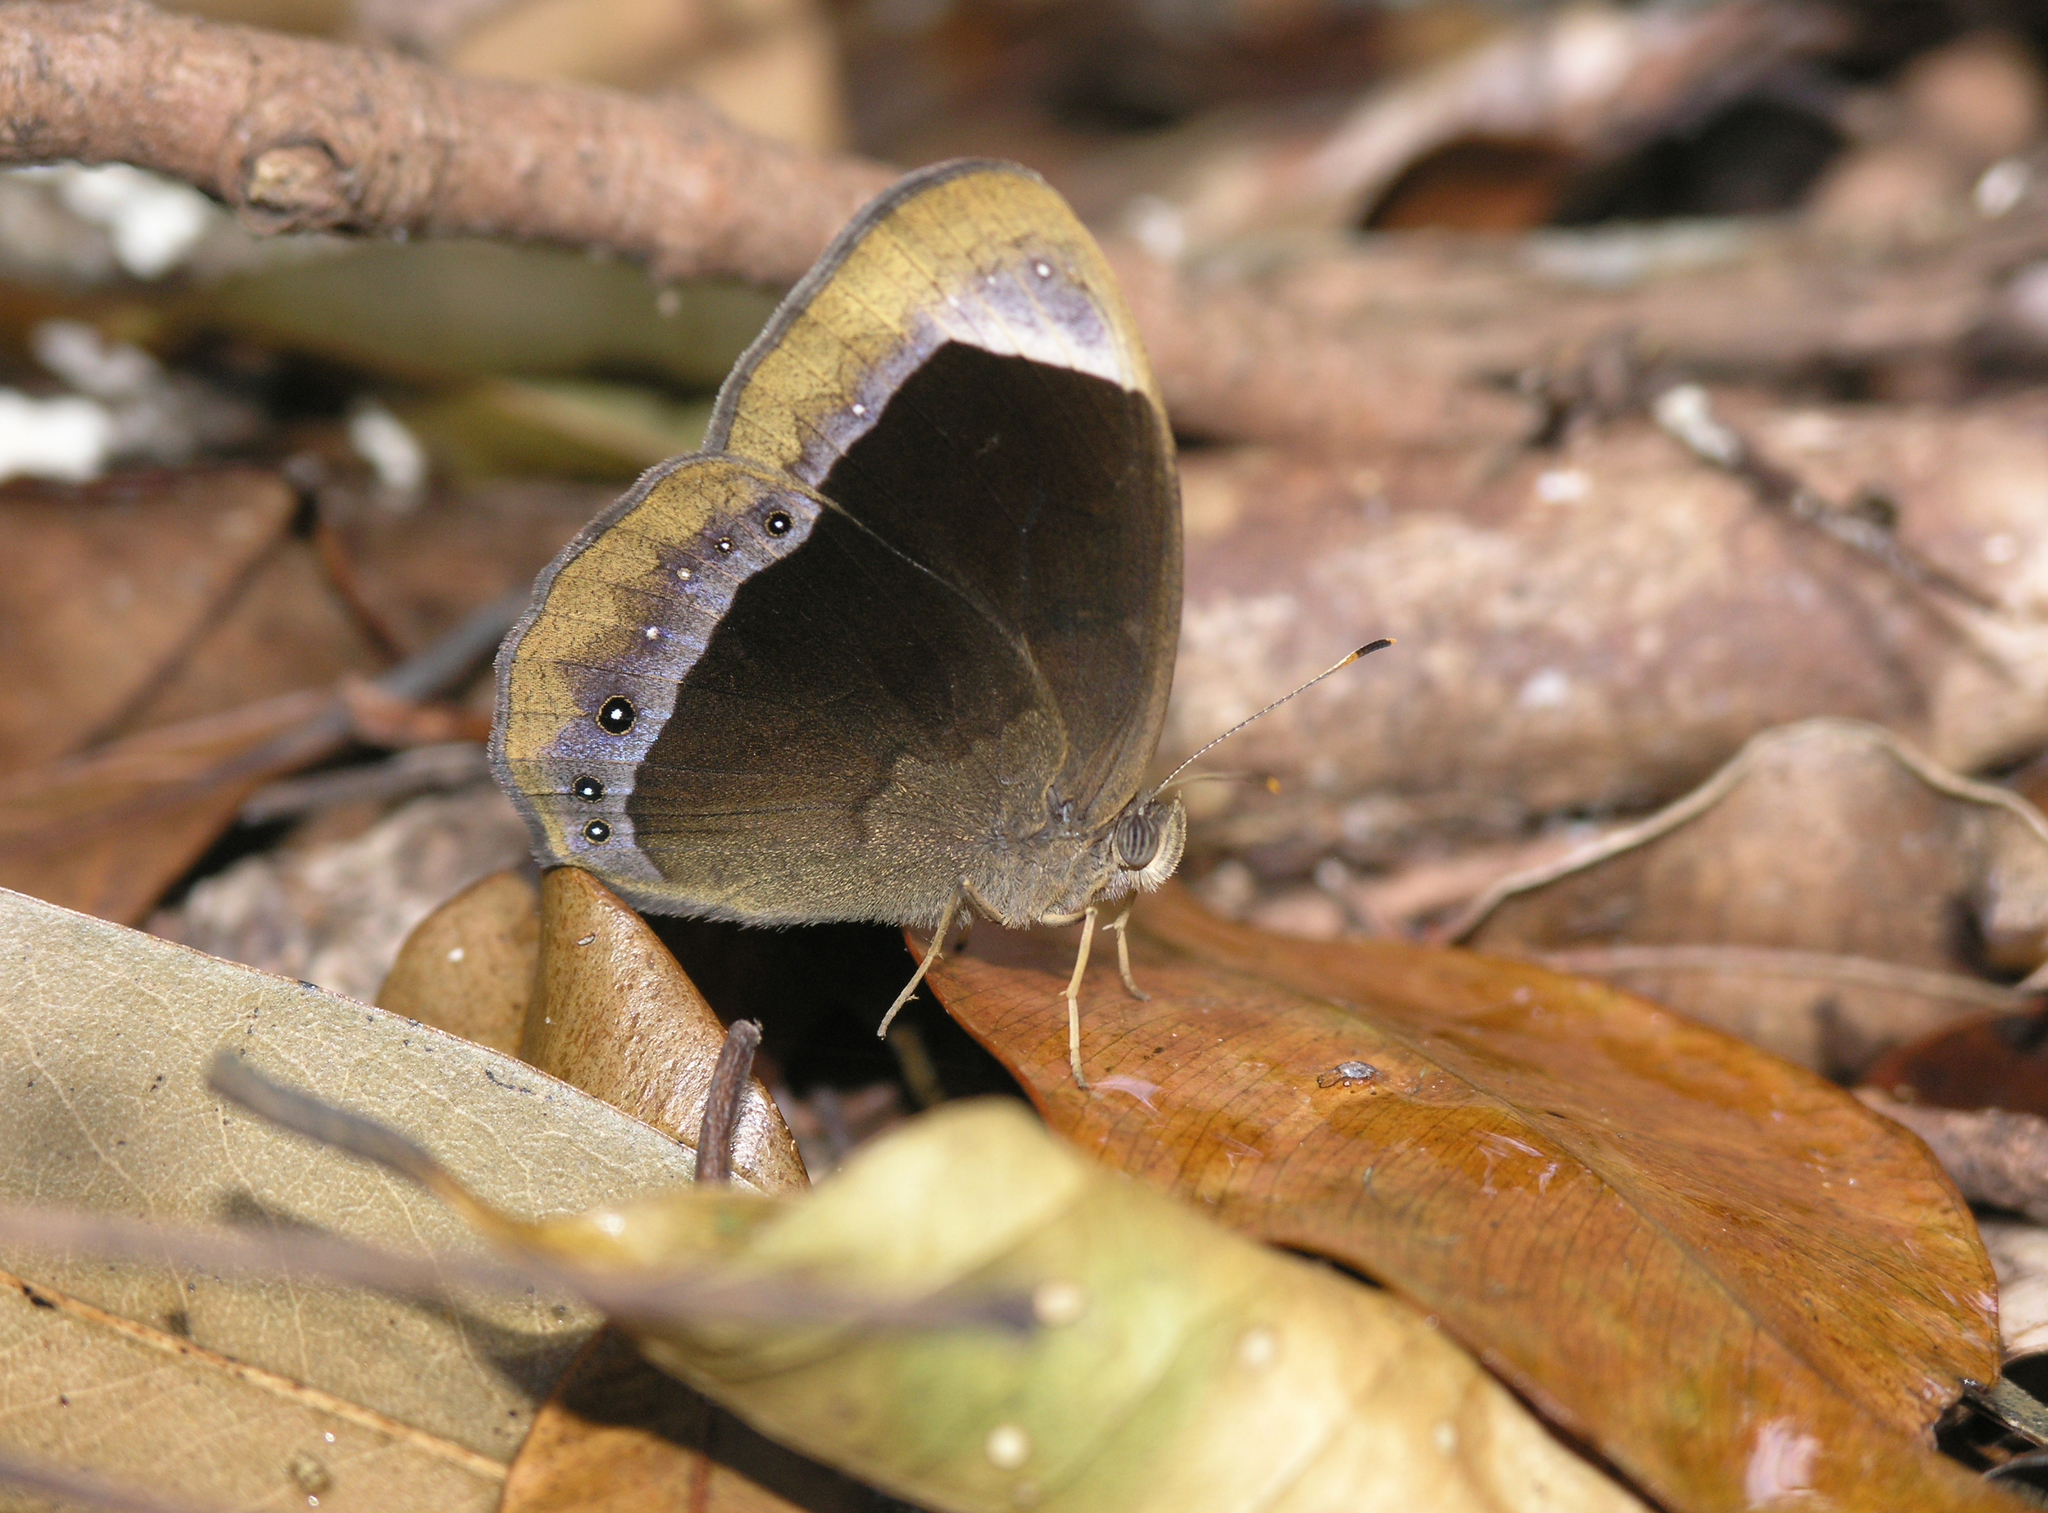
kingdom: Animalia
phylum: Arthropoda
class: Insecta
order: Lepidoptera
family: Nymphalidae
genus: Mycalesis
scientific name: Mycalesis anaxias
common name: White-bar bushbrown
